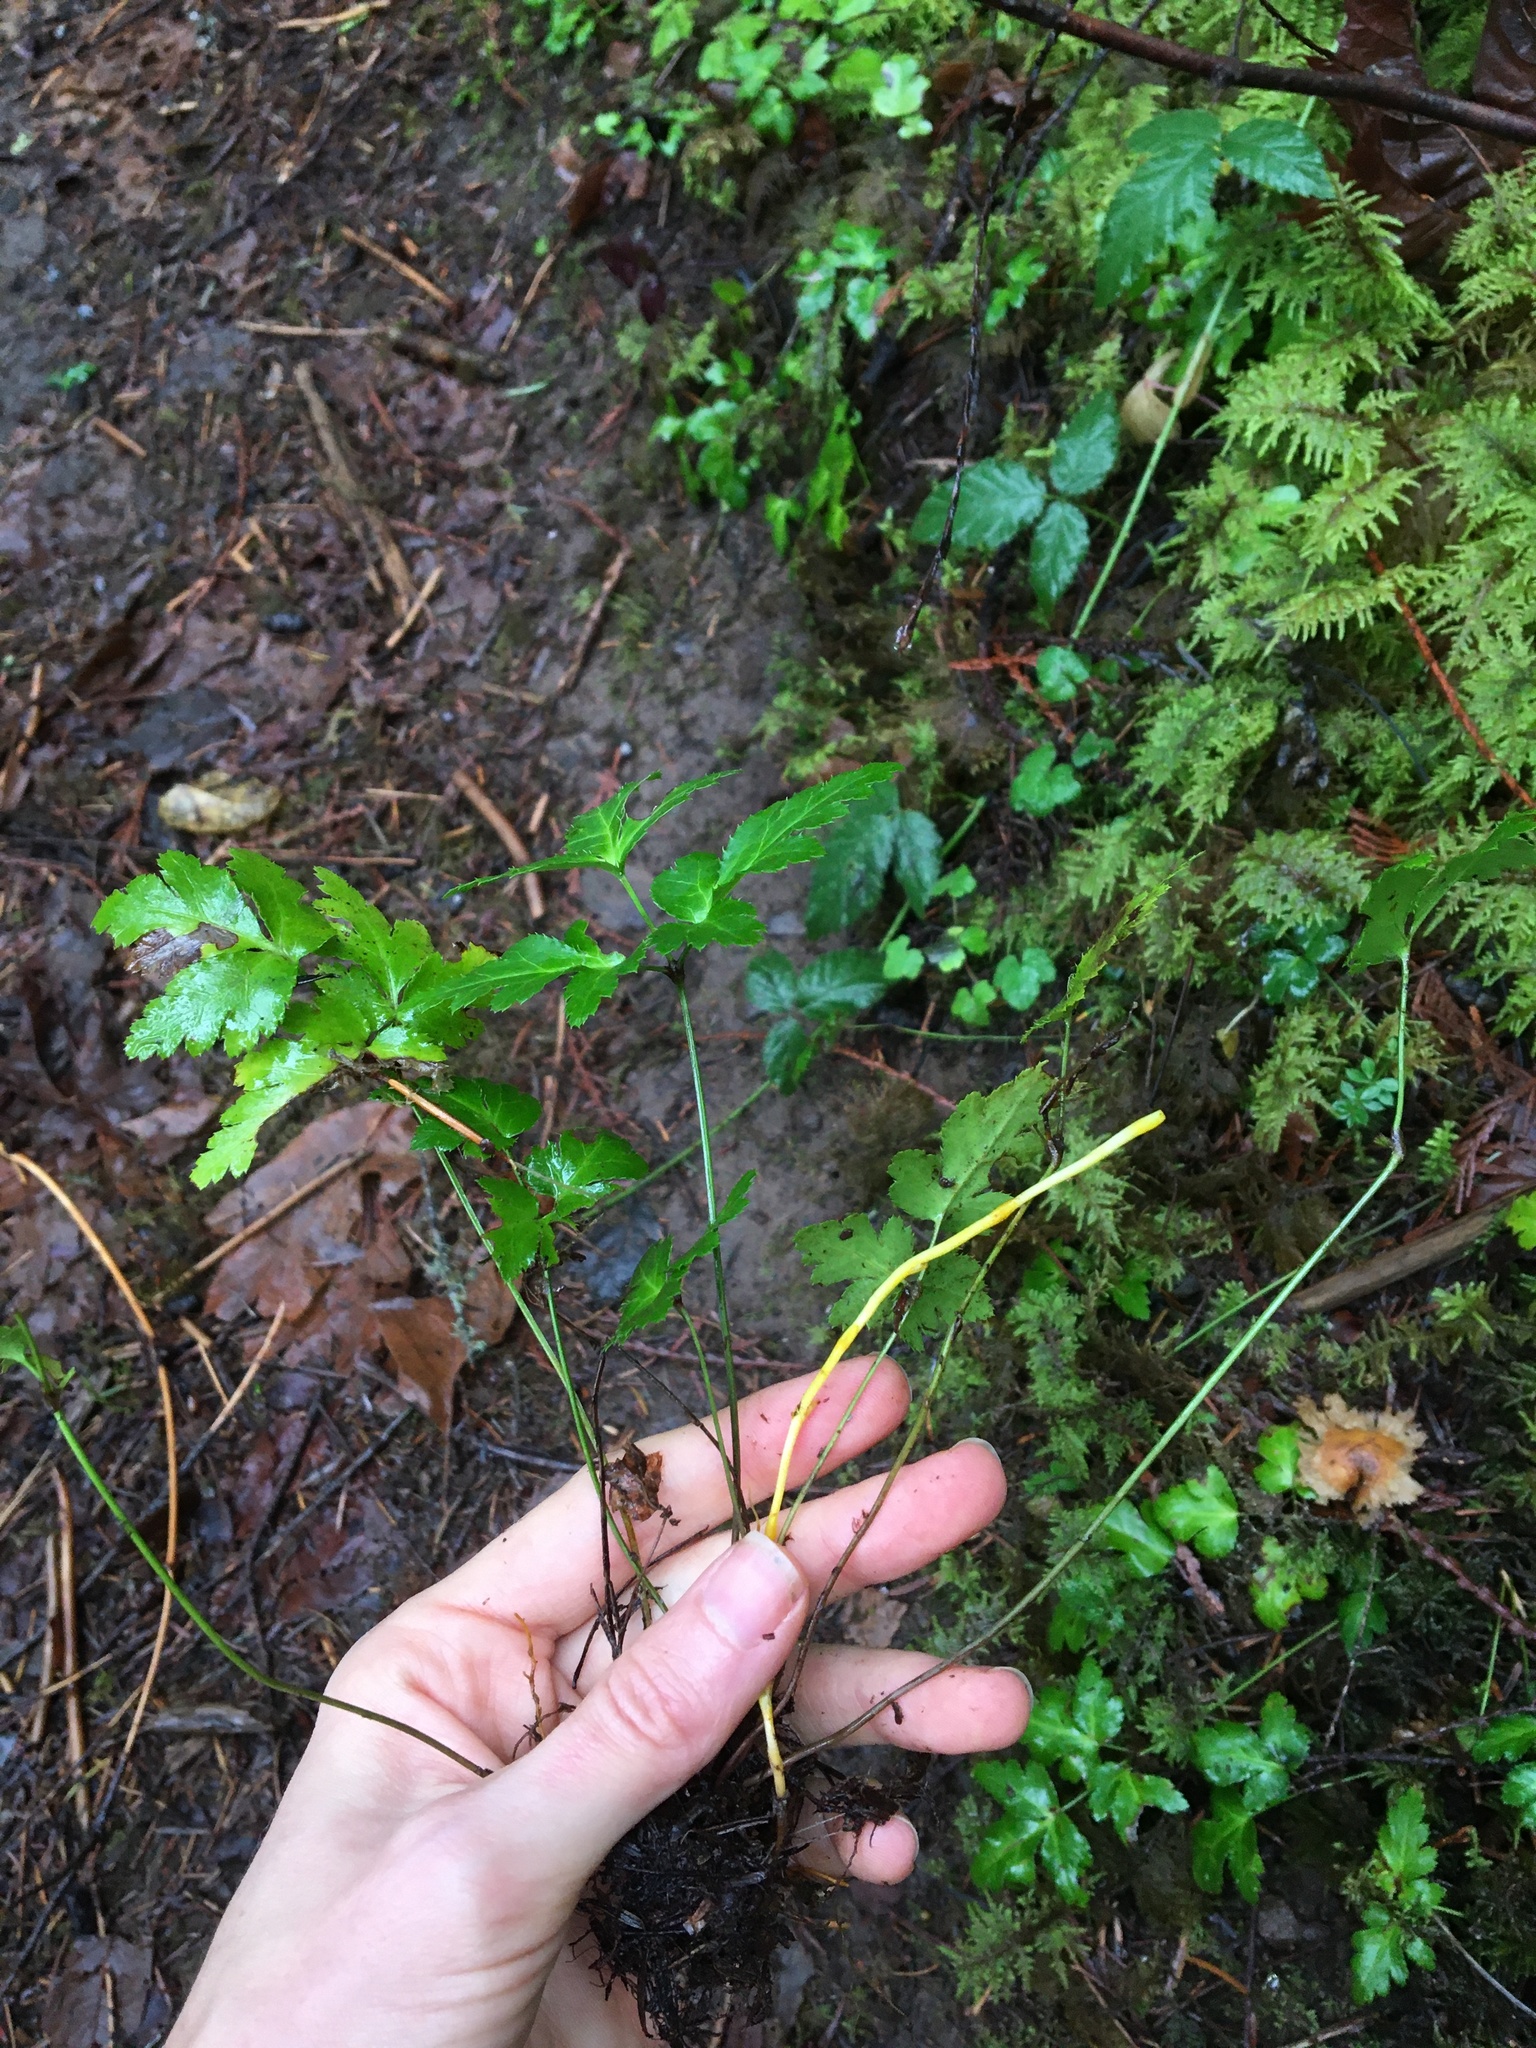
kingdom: Plantae
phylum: Tracheophyta
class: Magnoliopsida
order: Ranunculales
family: Ranunculaceae
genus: Coptis
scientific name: Coptis laciniata
